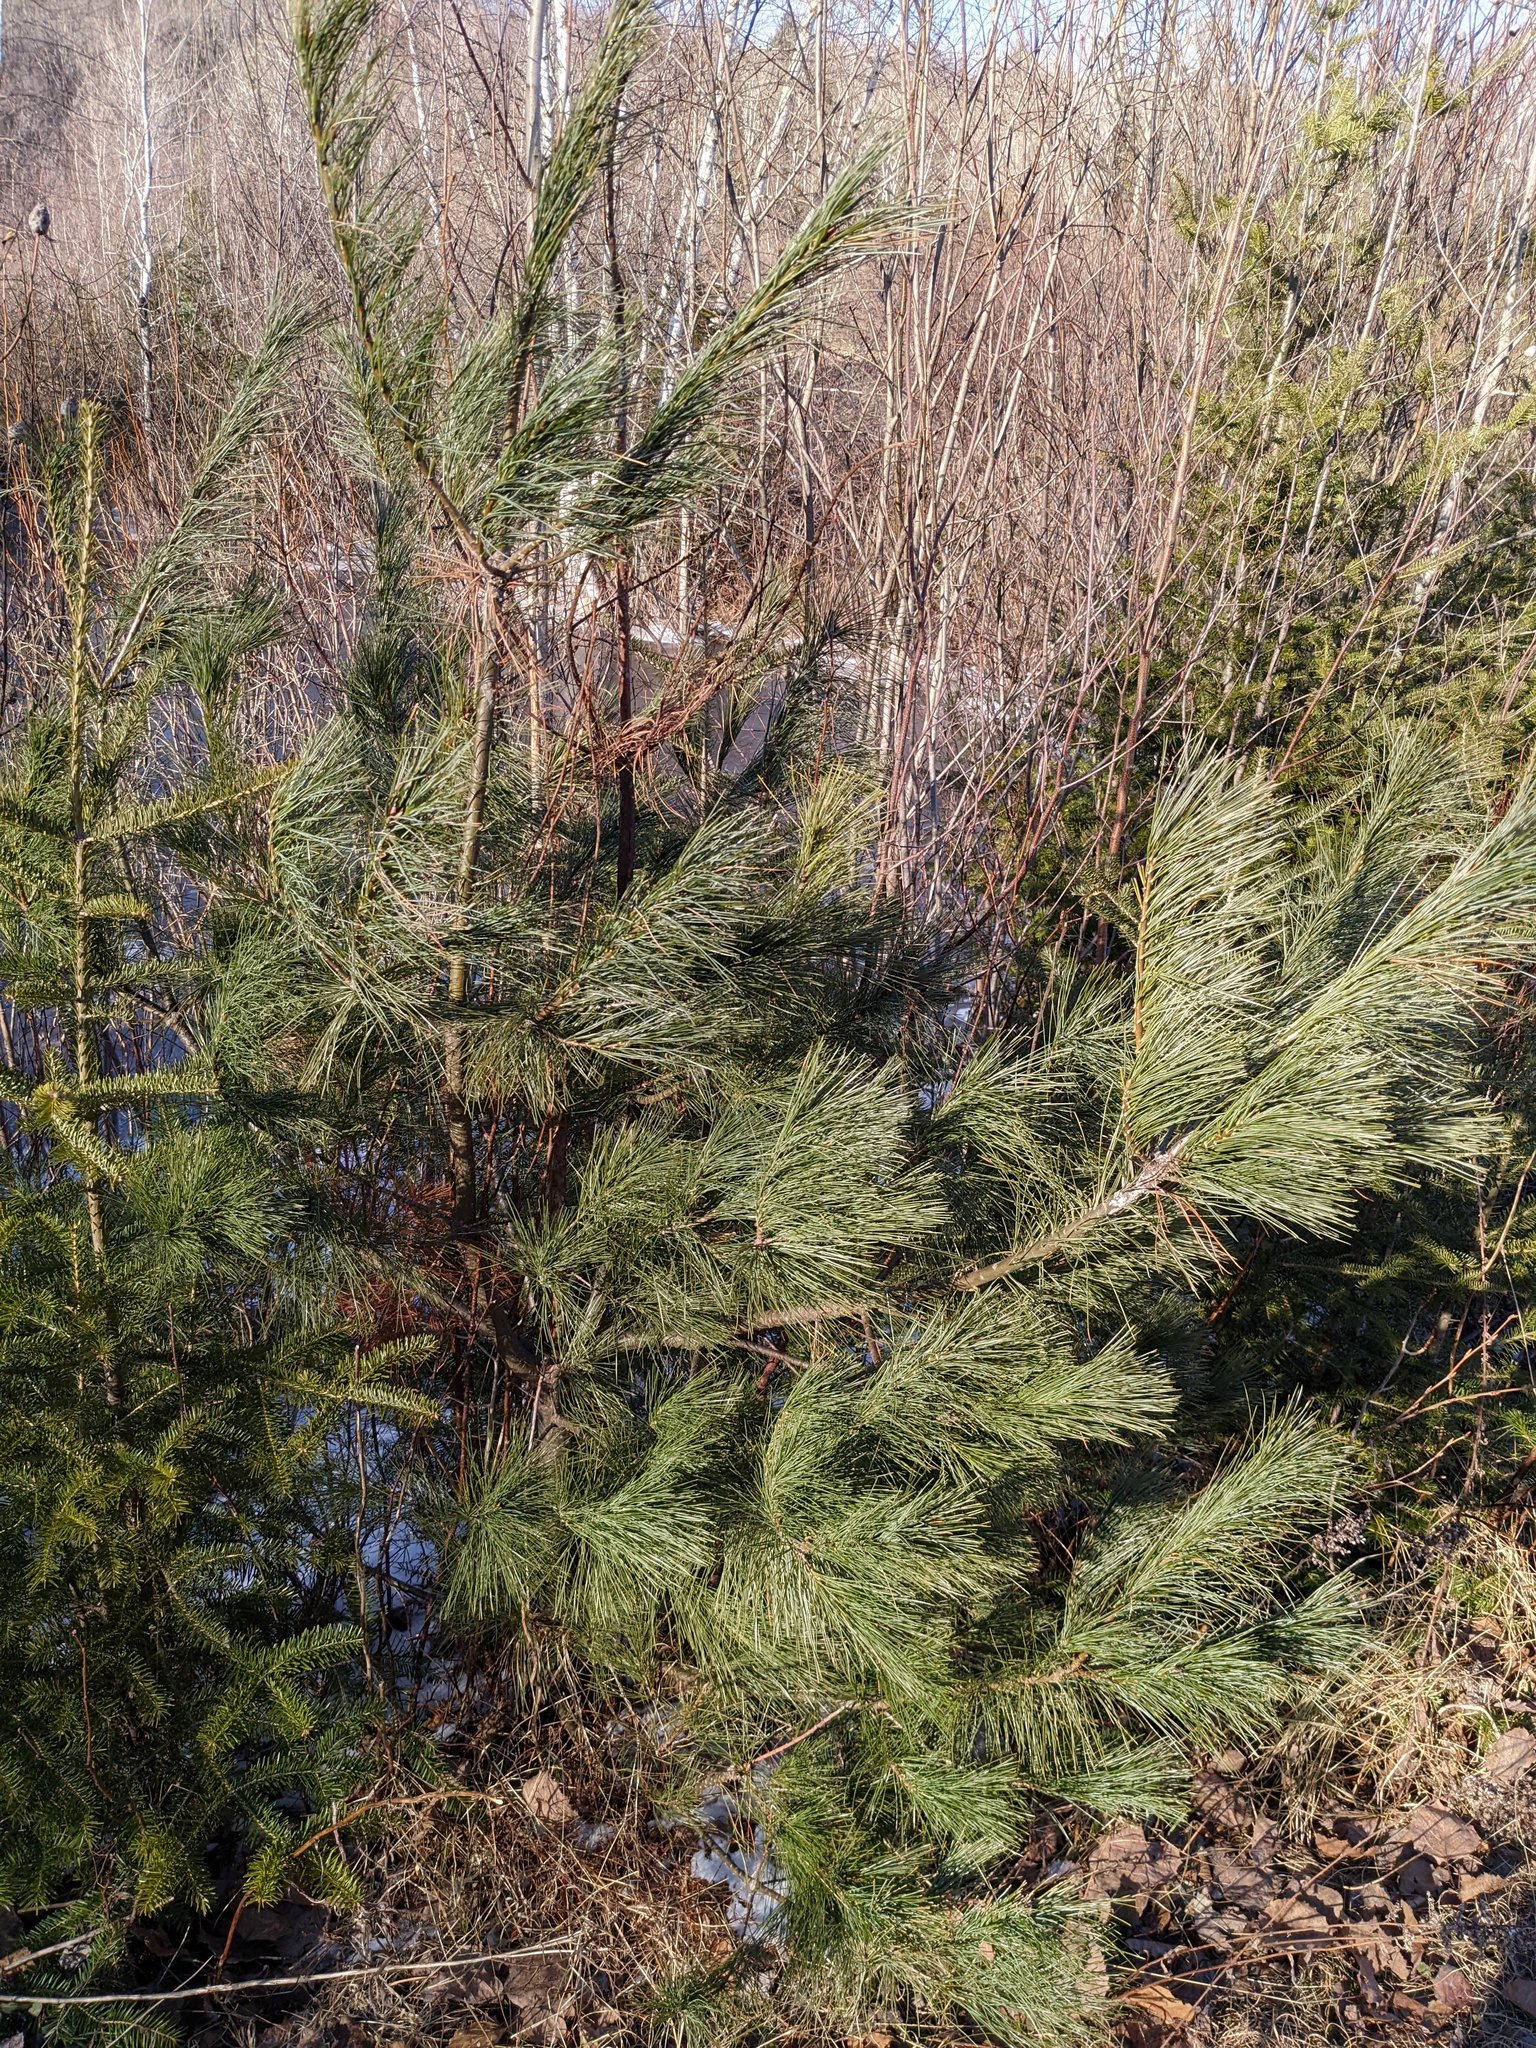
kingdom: Plantae
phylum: Tracheophyta
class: Pinopsida
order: Pinales
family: Pinaceae
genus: Pinus
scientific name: Pinus strobus
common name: Weymouth pine
